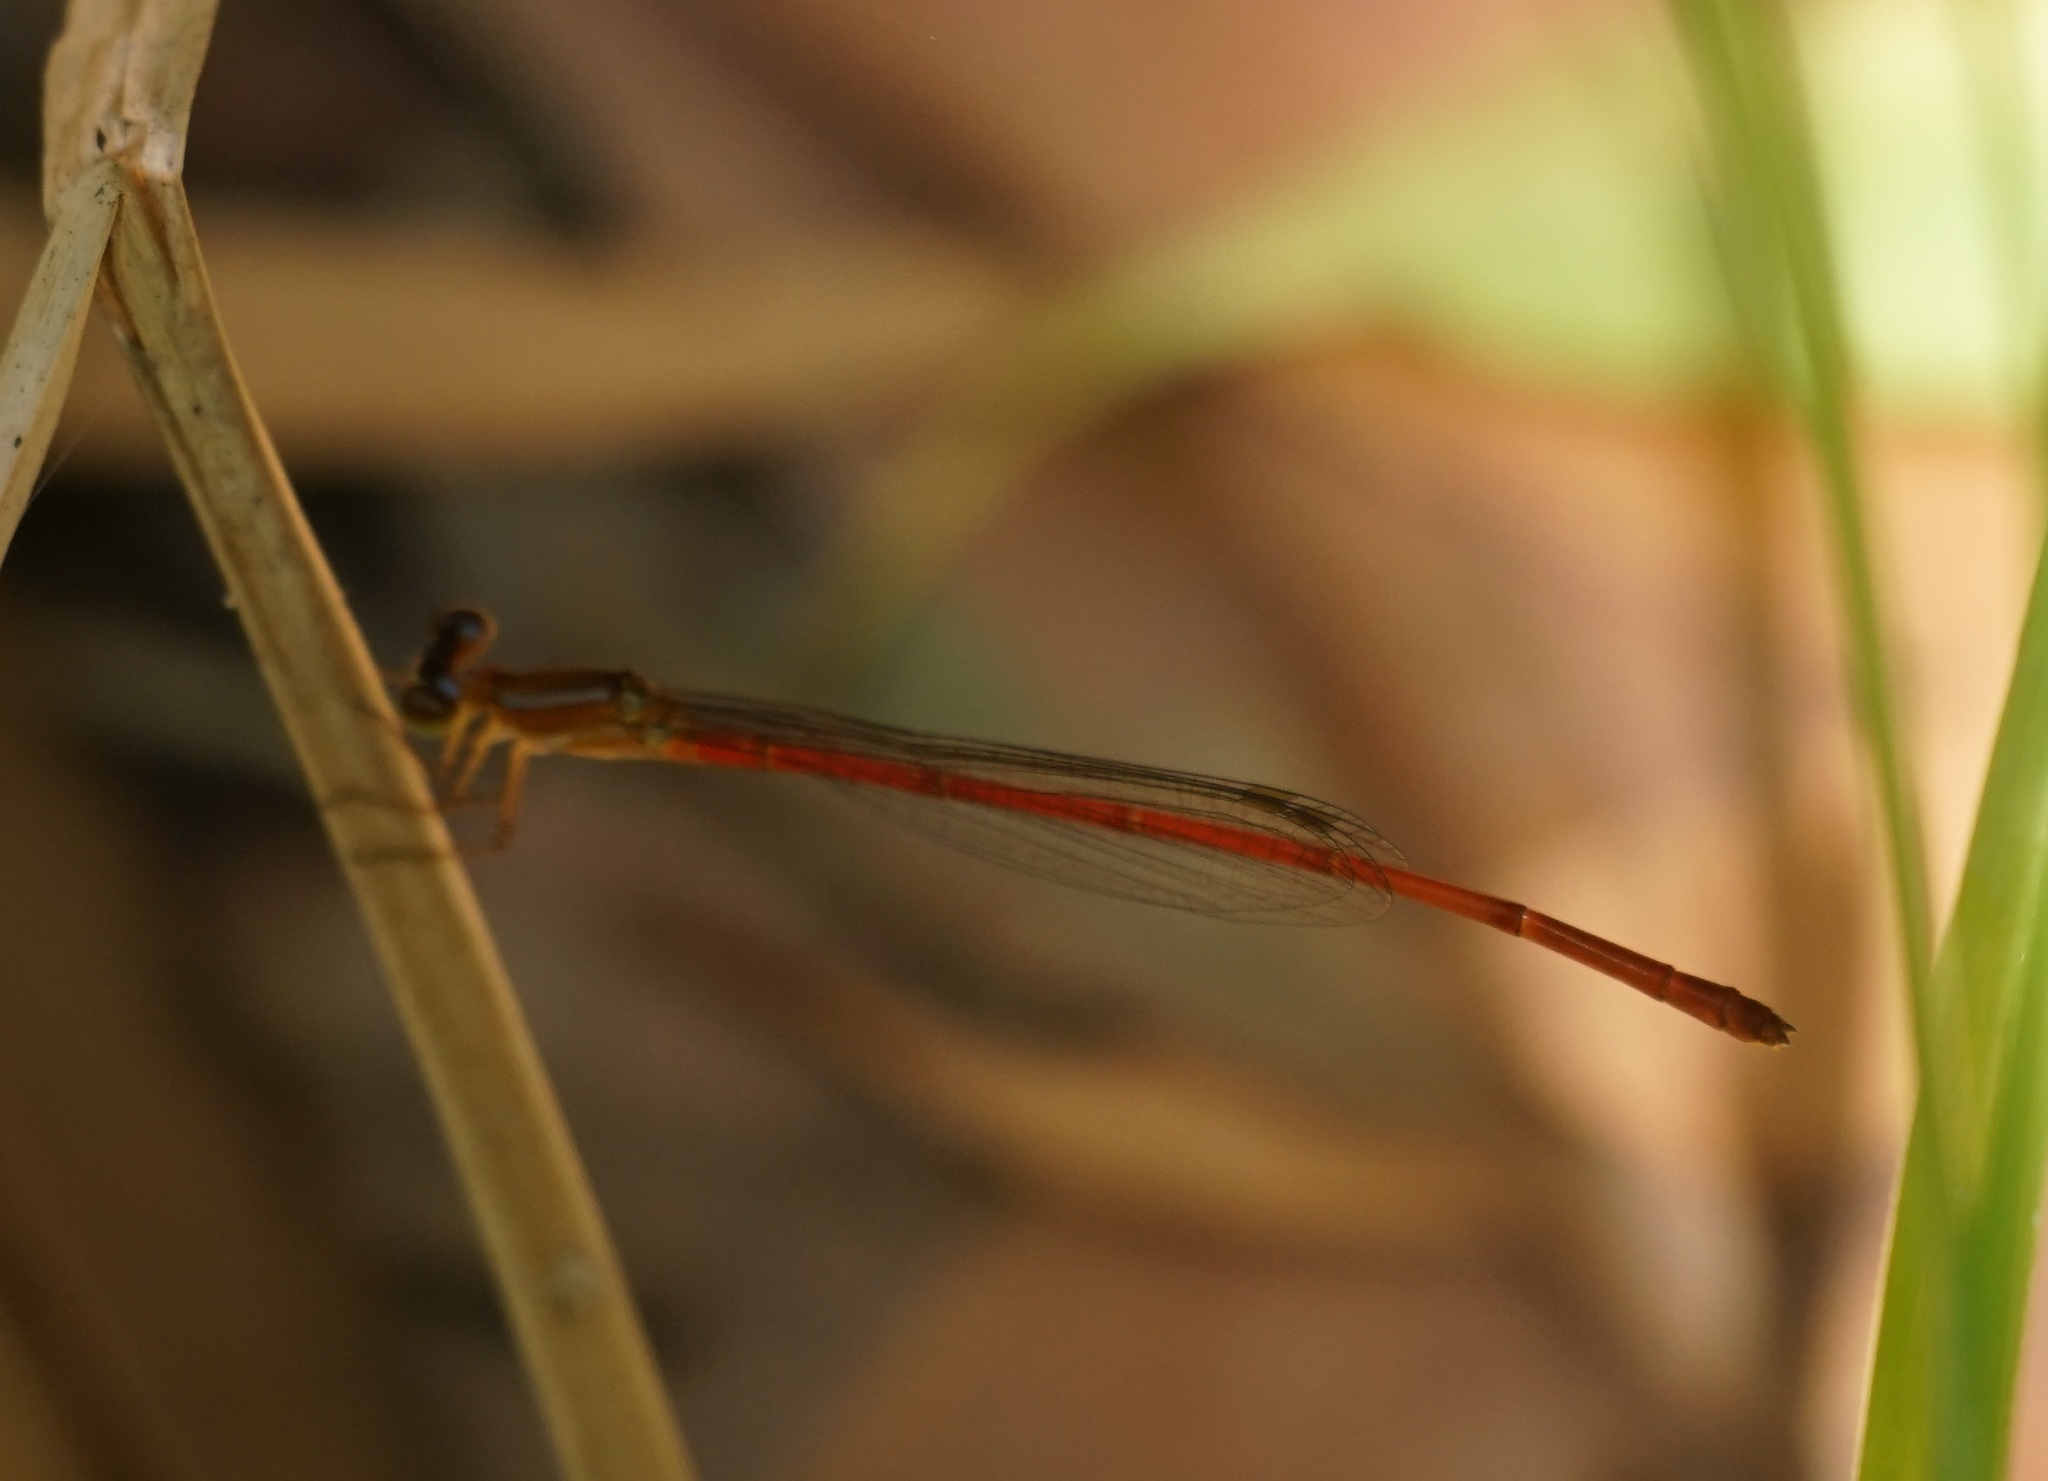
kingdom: Animalia
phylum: Arthropoda
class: Insecta
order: Odonata
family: Coenagrionidae
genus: Argiocnemis
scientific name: Argiocnemis rubescens
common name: Red-tipped shadefly
